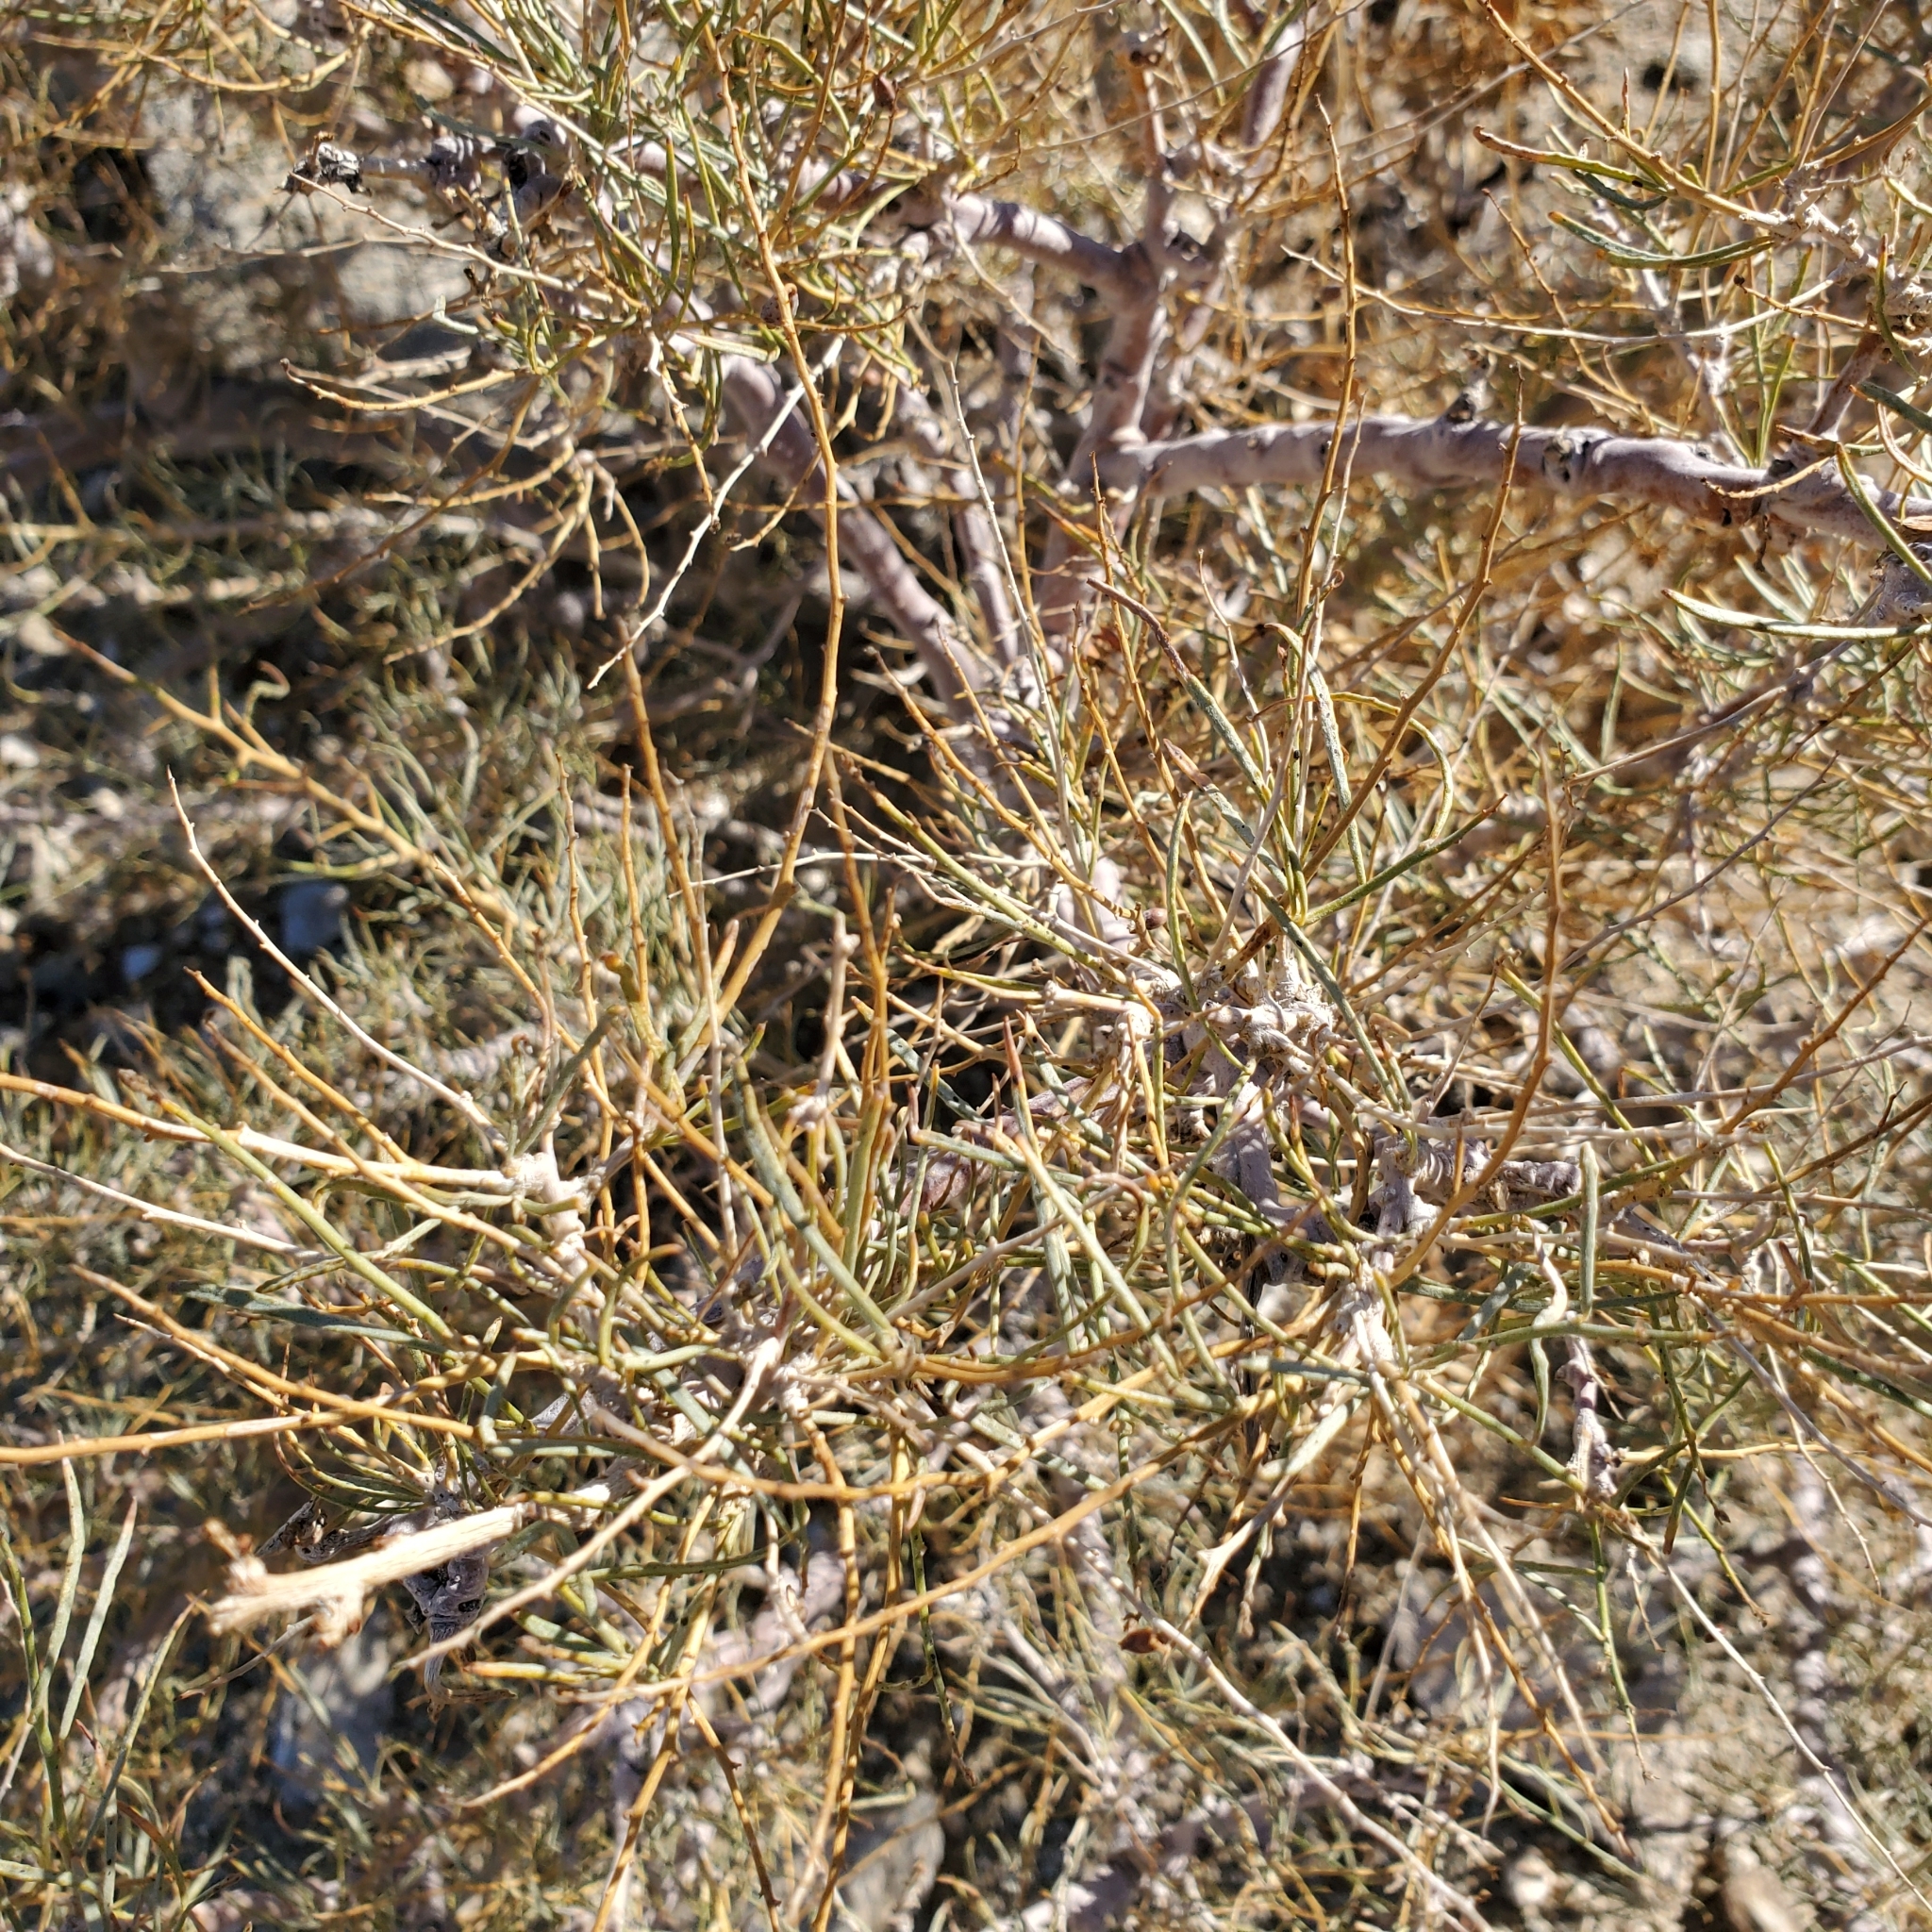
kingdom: Plantae
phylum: Tracheophyta
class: Magnoliopsida
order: Fabales
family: Fabaceae
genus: Psorothamnus
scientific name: Psorothamnus schottii
